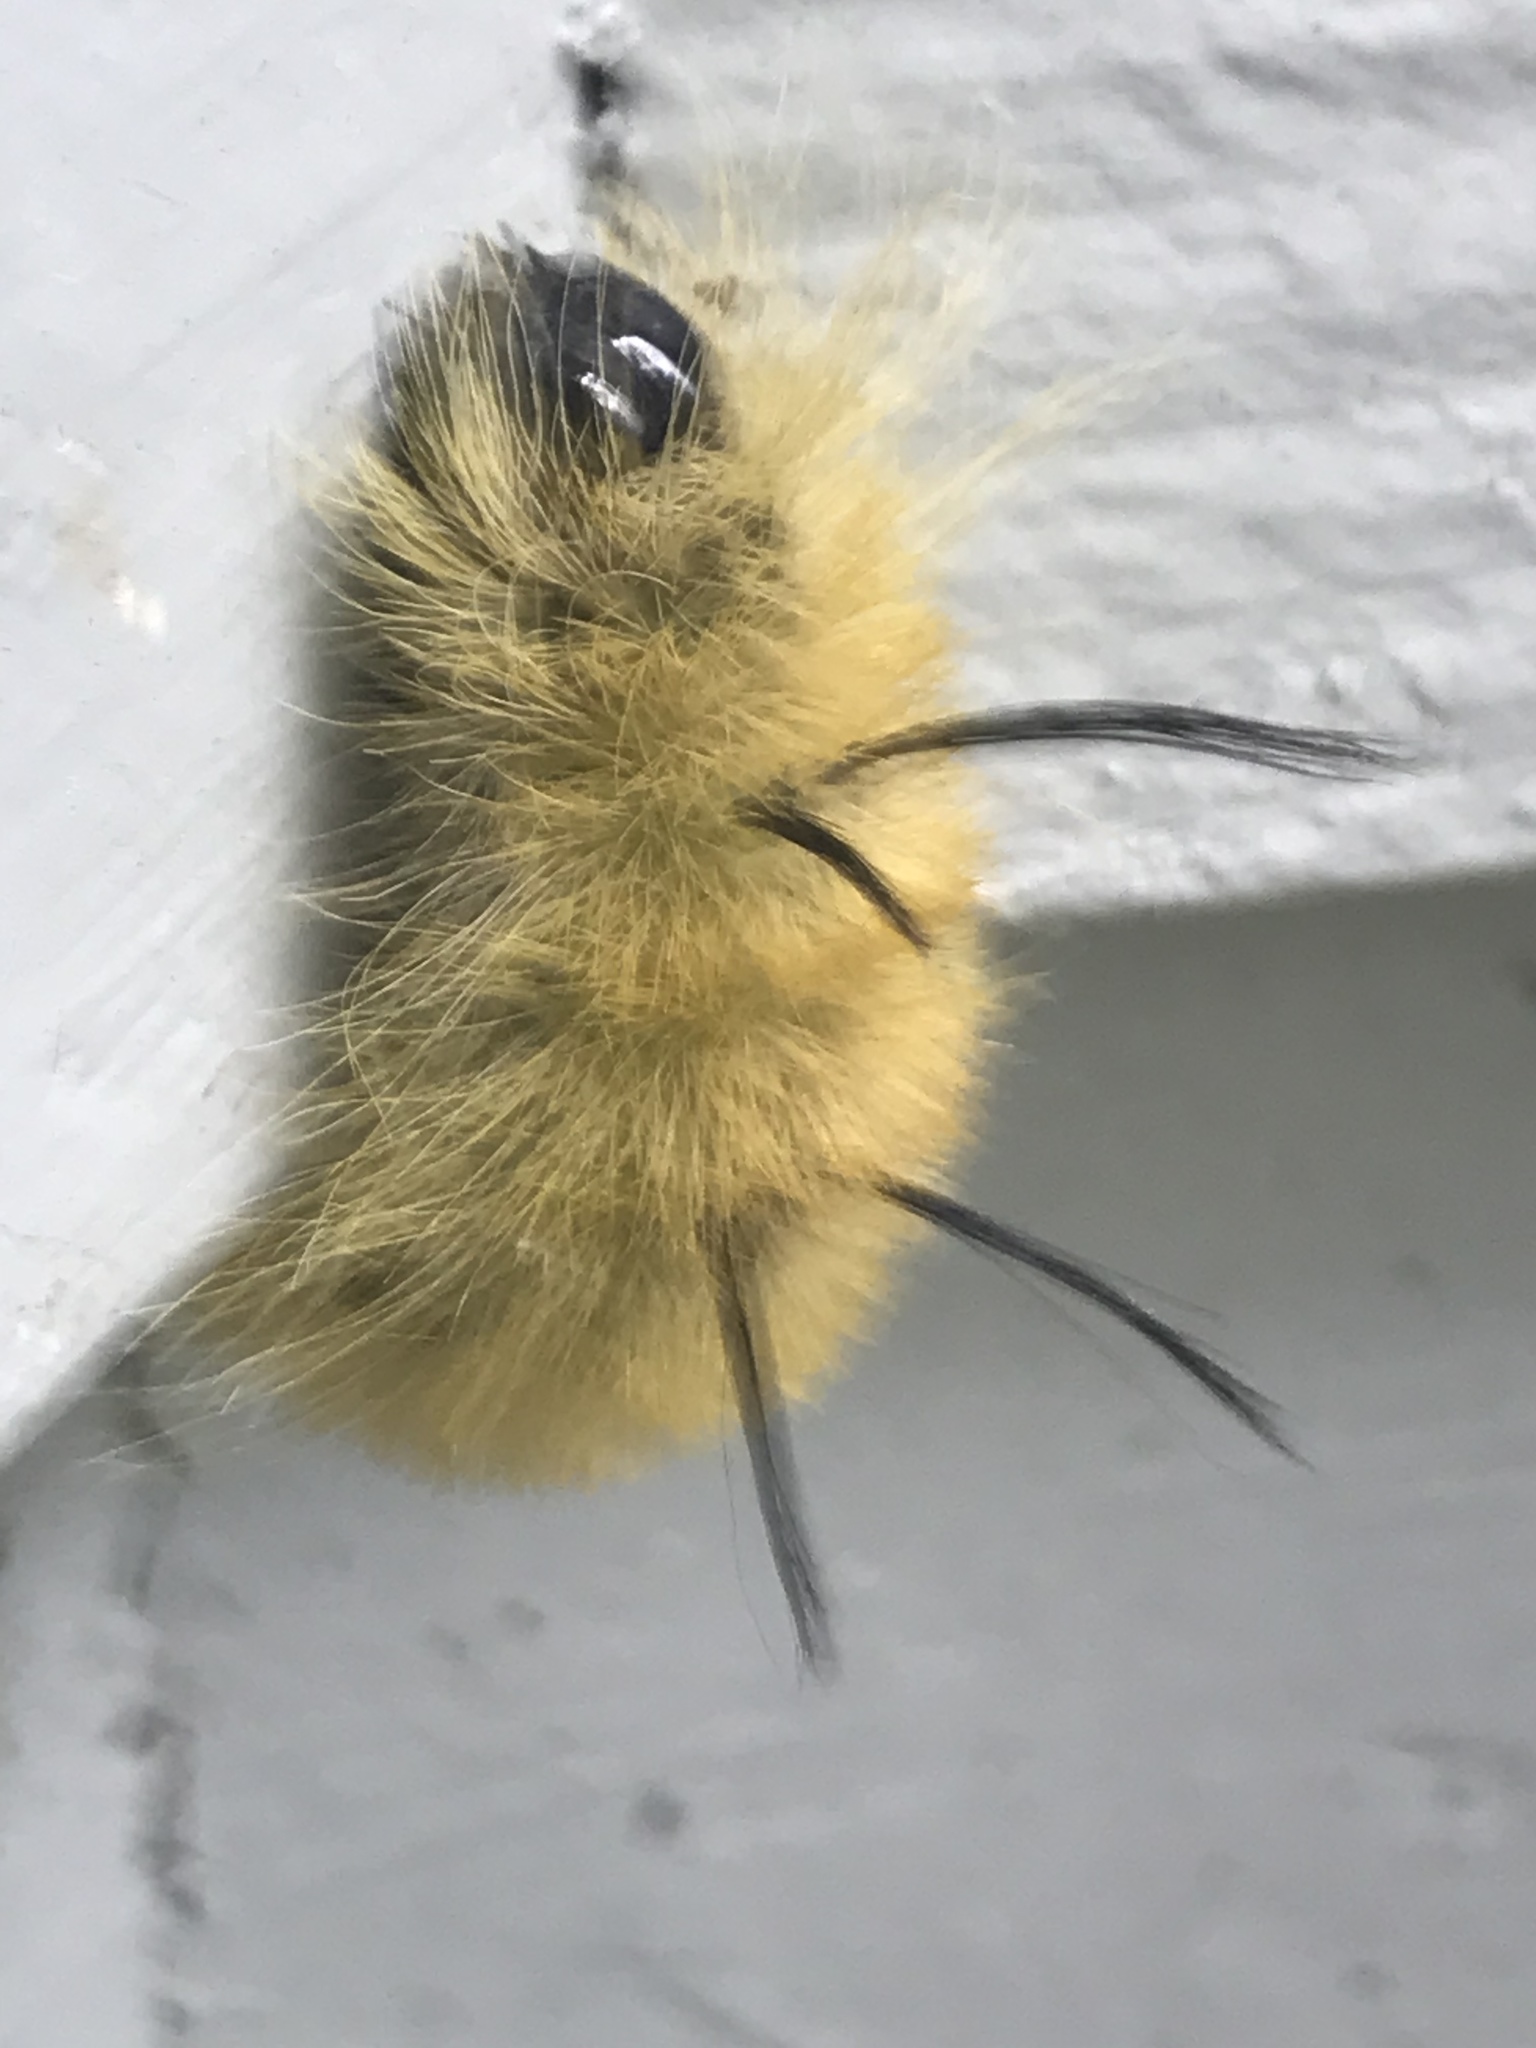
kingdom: Animalia
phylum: Arthropoda
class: Insecta
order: Lepidoptera
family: Noctuidae
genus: Acronicta
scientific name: Acronicta americana
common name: American dagger
